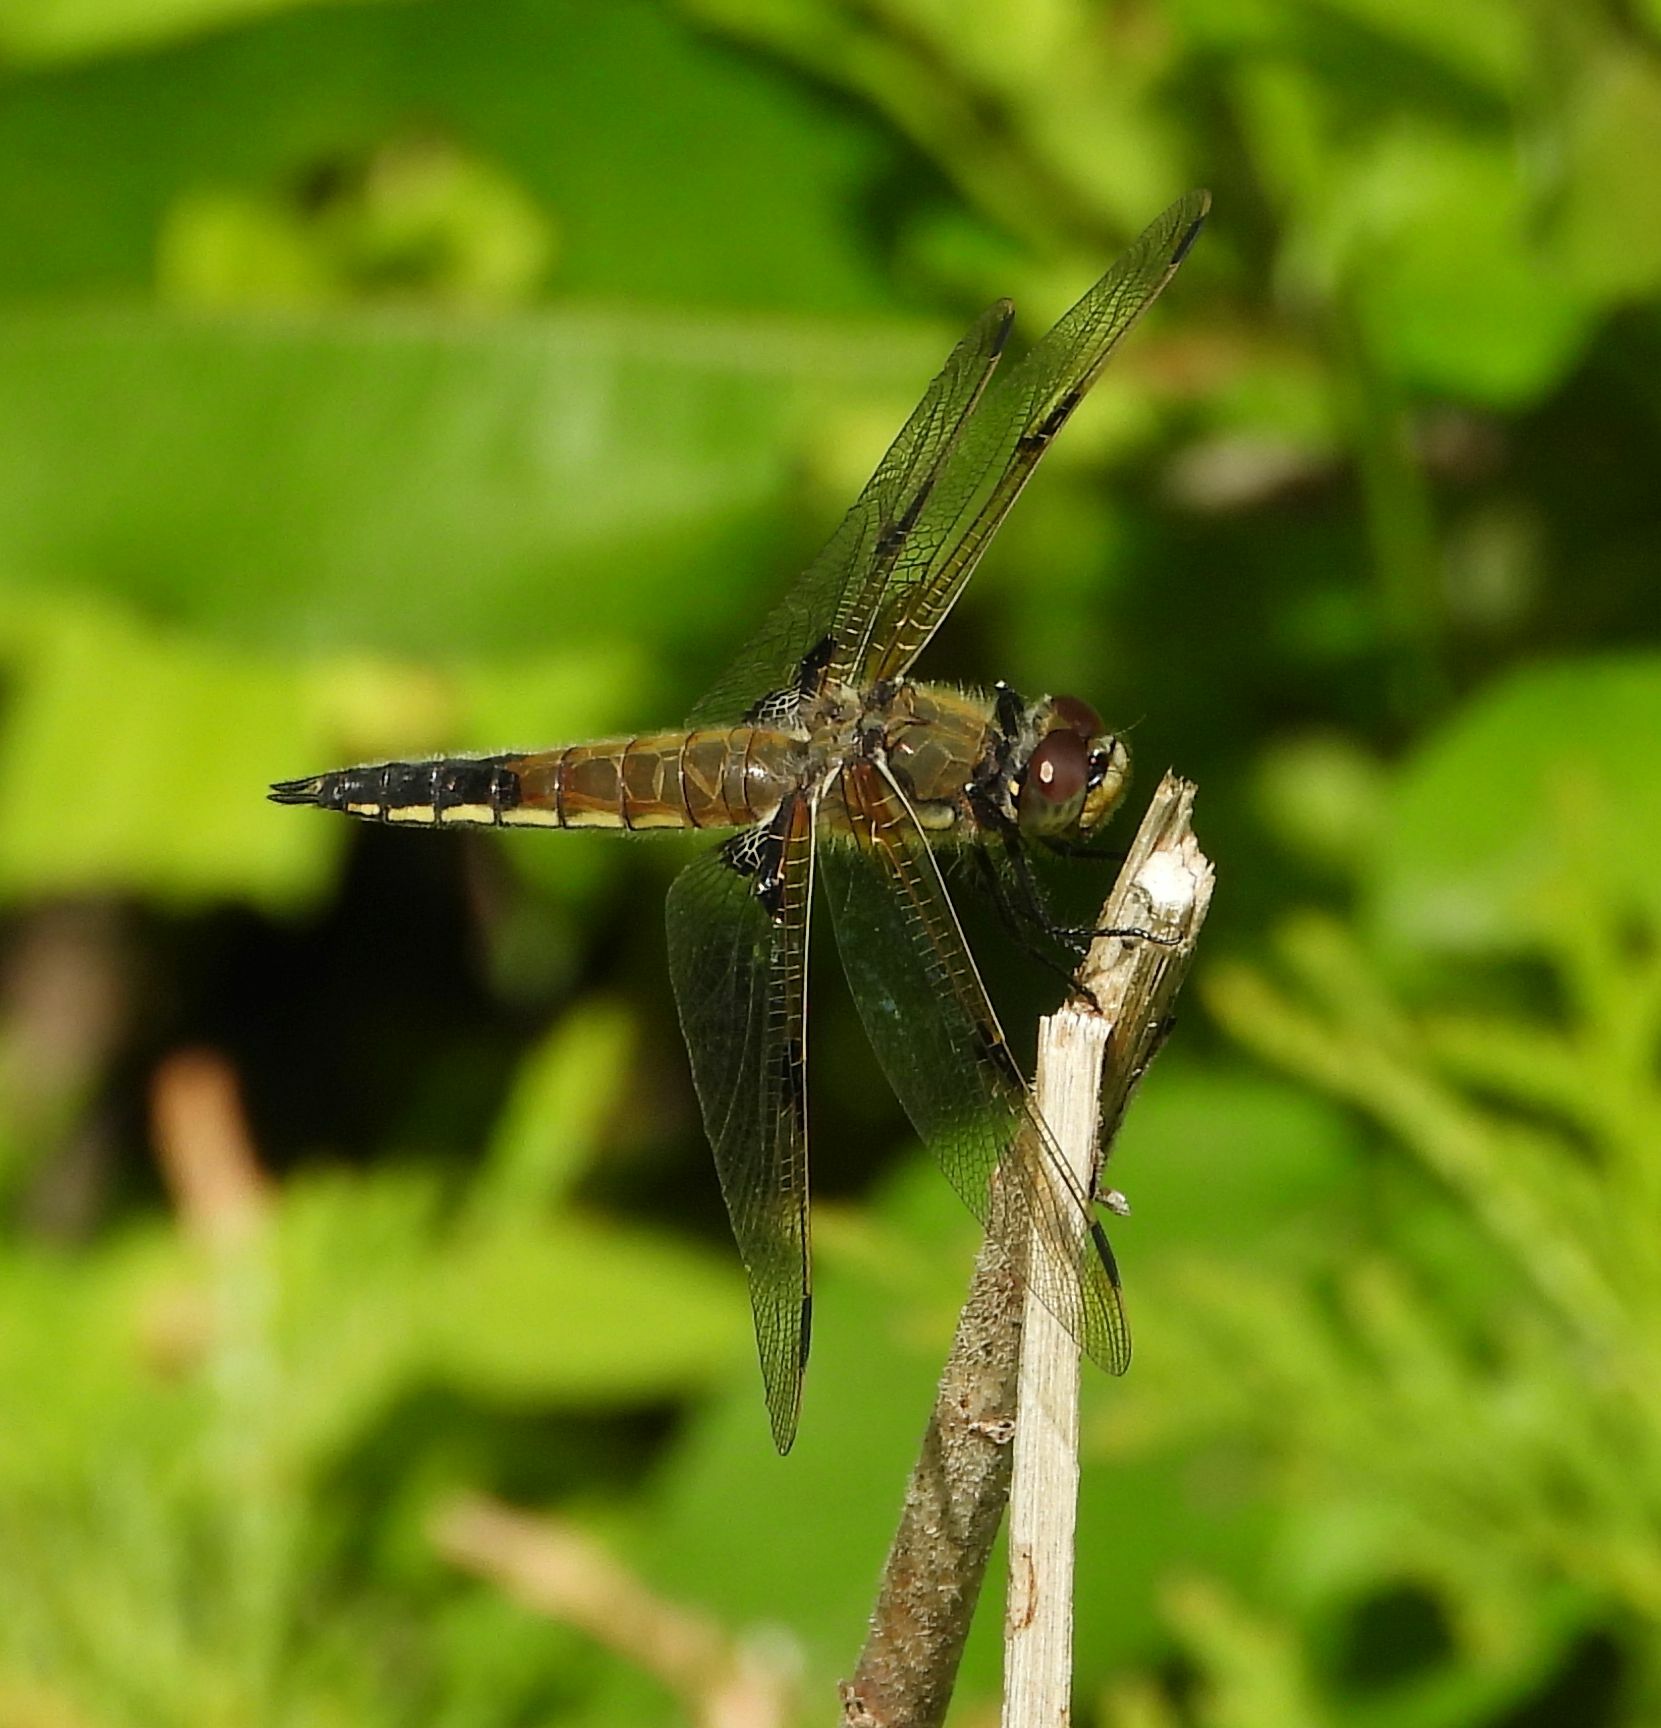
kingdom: Animalia
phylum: Arthropoda
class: Insecta
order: Odonata
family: Libellulidae
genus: Libellula
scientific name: Libellula quadrimaculata
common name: Four-spotted chaser
